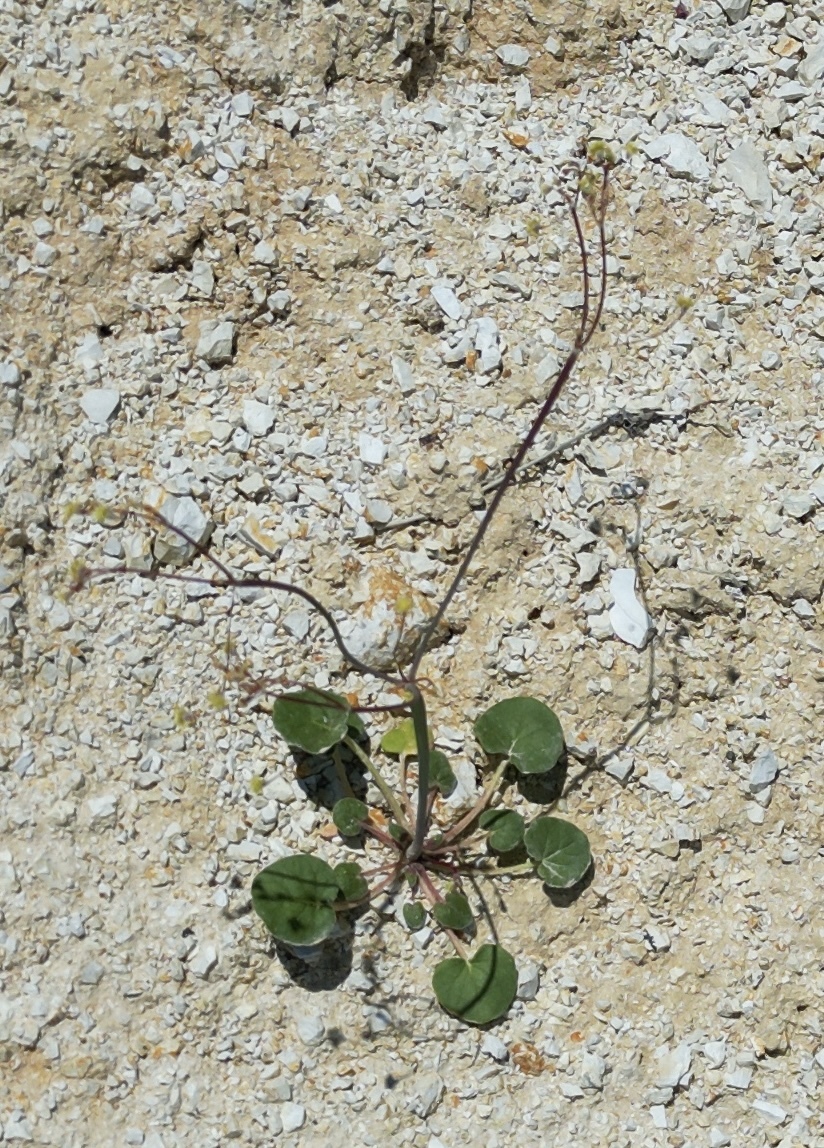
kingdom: Plantae
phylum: Tracheophyta
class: Magnoliopsida
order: Caryophyllales
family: Polygonaceae
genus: Eriogonum
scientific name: Eriogonum rubricaule
